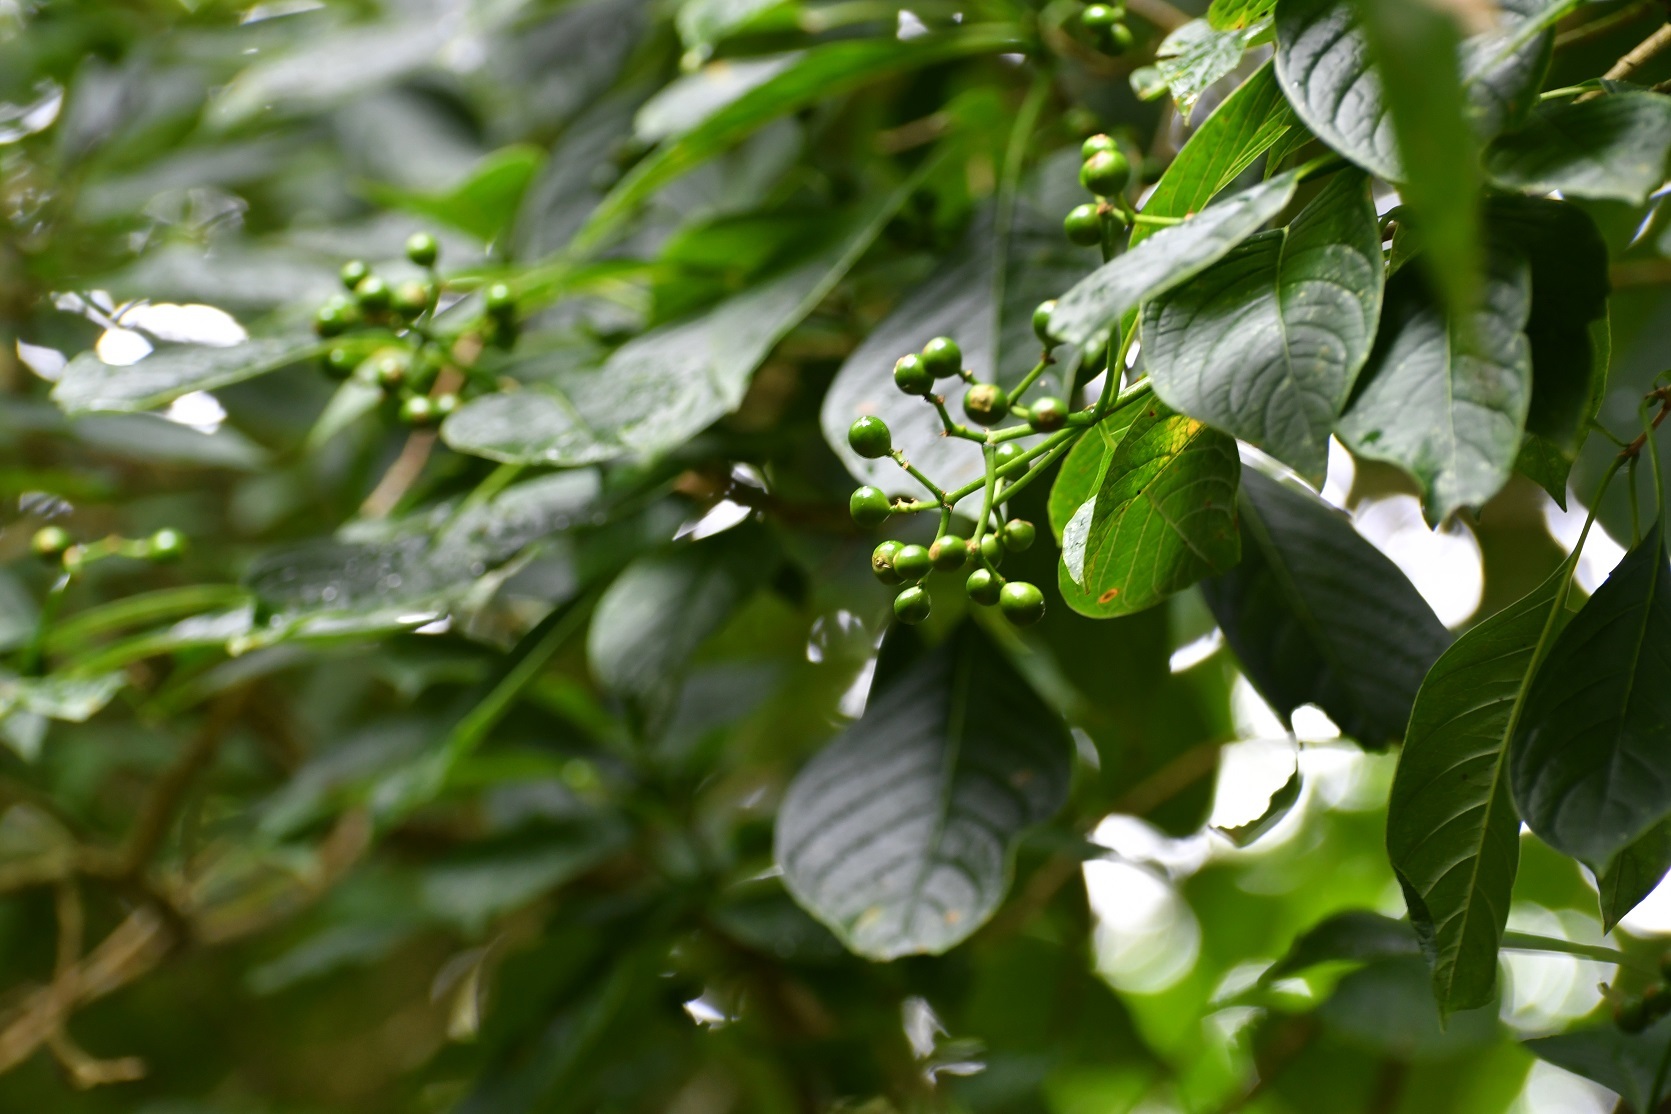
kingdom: Plantae
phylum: Tracheophyta
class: Magnoliopsida
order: Gentianales
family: Rubiaceae
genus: Coussarea
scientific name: Coussarea chiapensis
